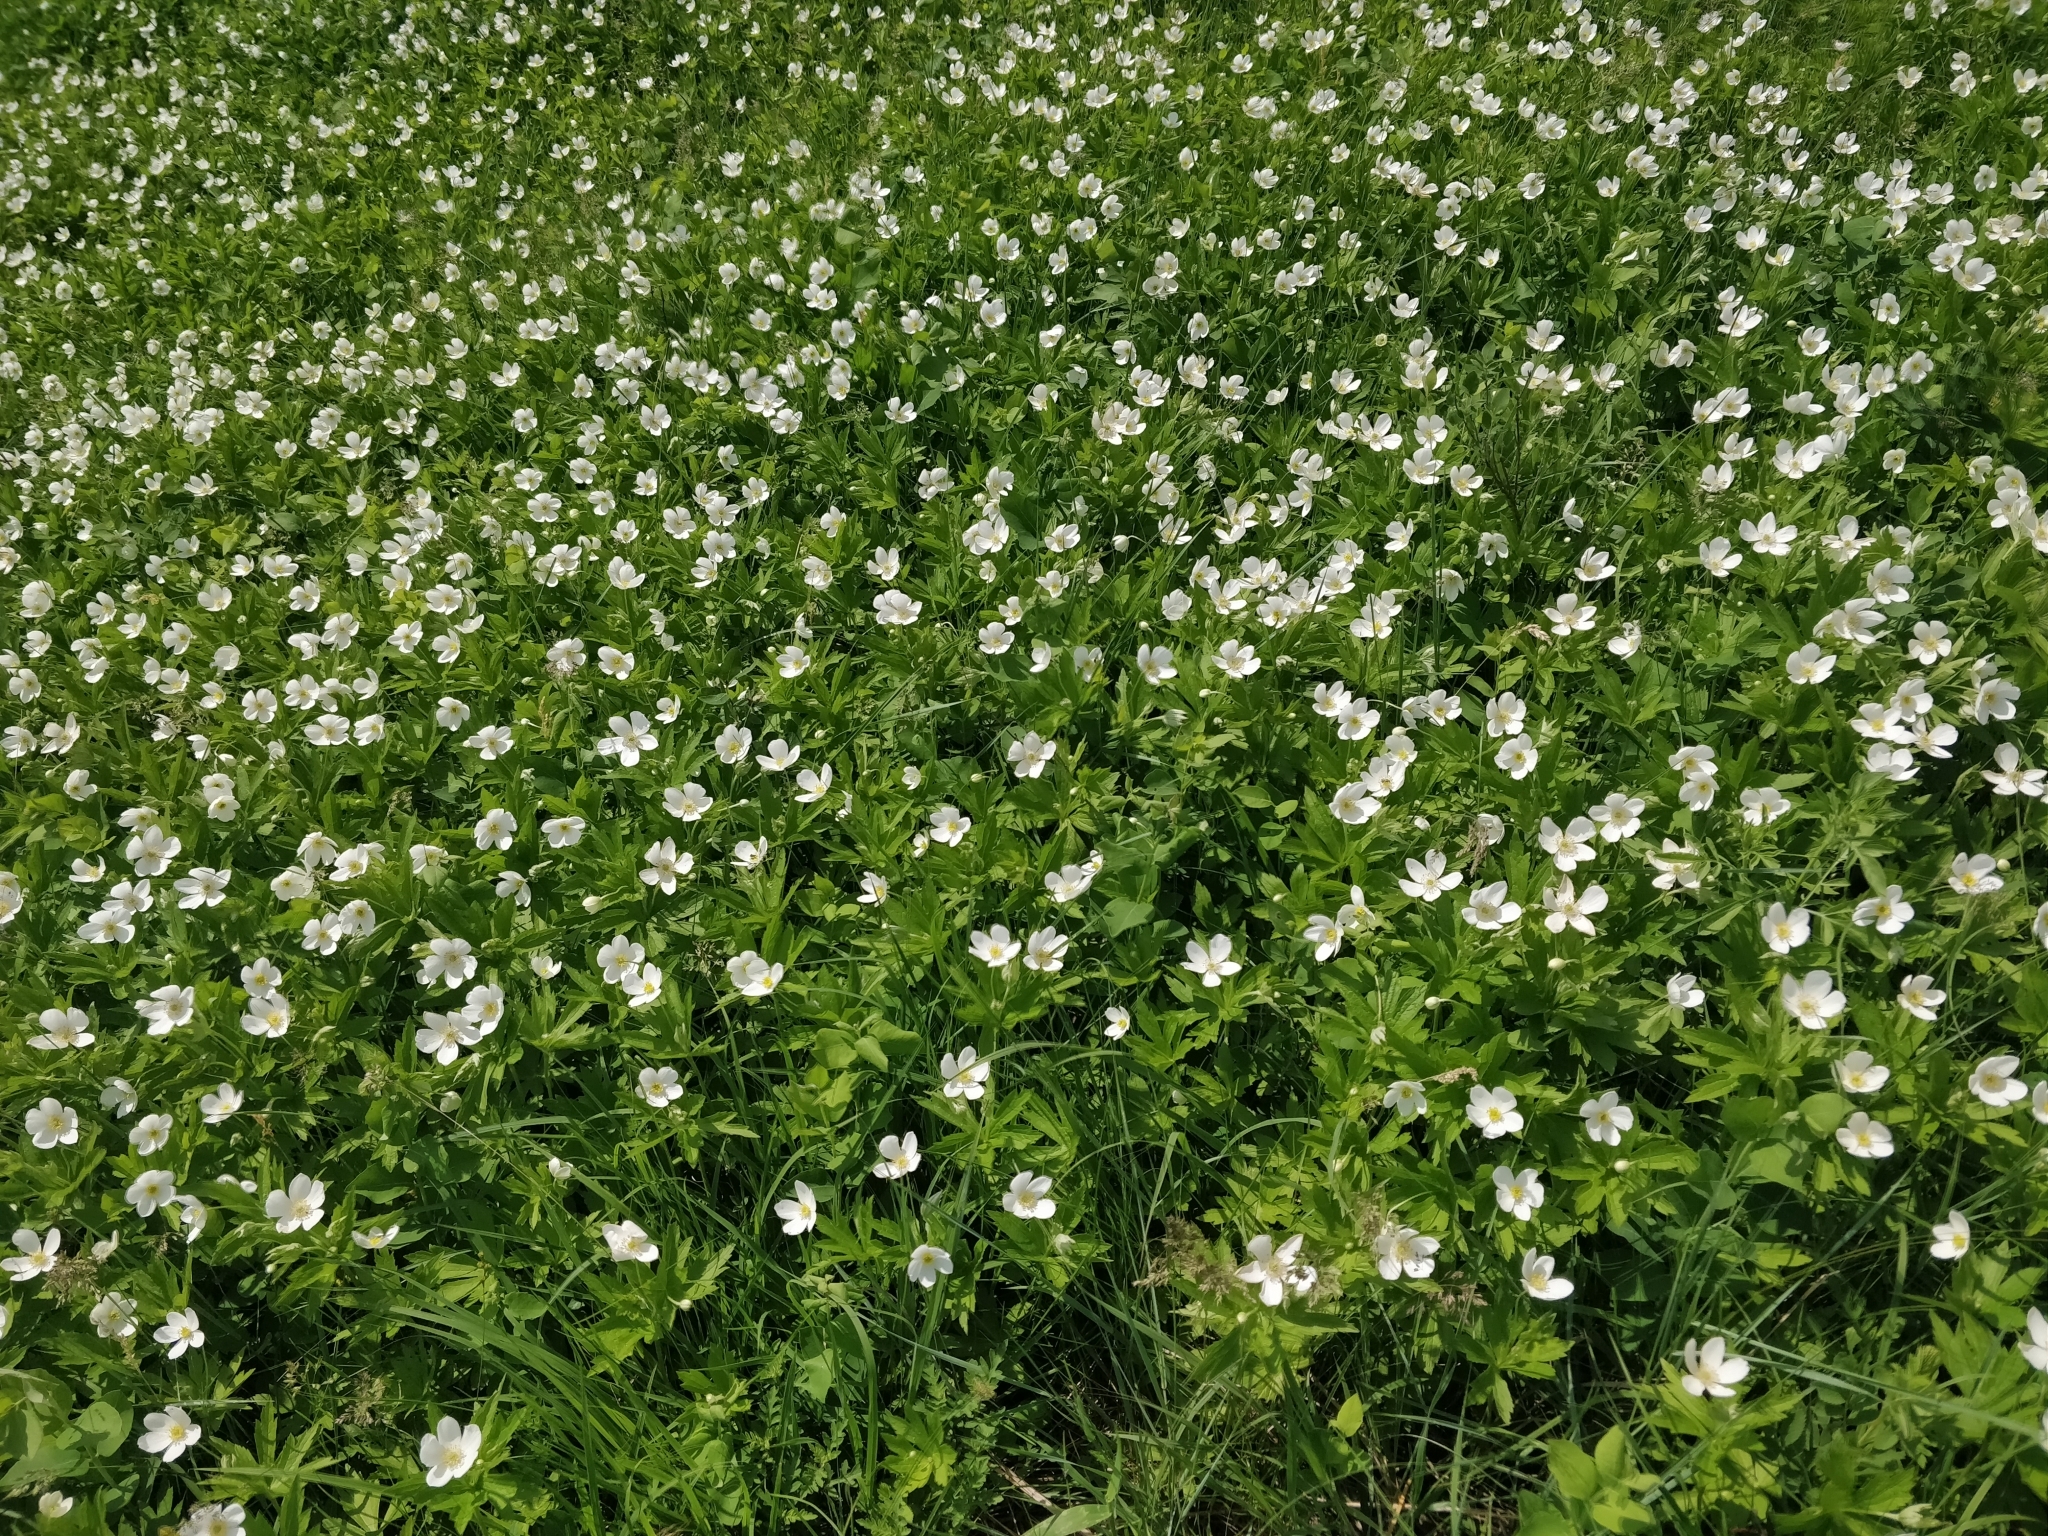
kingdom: Plantae
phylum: Tracheophyta
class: Magnoliopsida
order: Ranunculales
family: Ranunculaceae
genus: Anemonastrum
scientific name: Anemonastrum canadense
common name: Canada anemone
